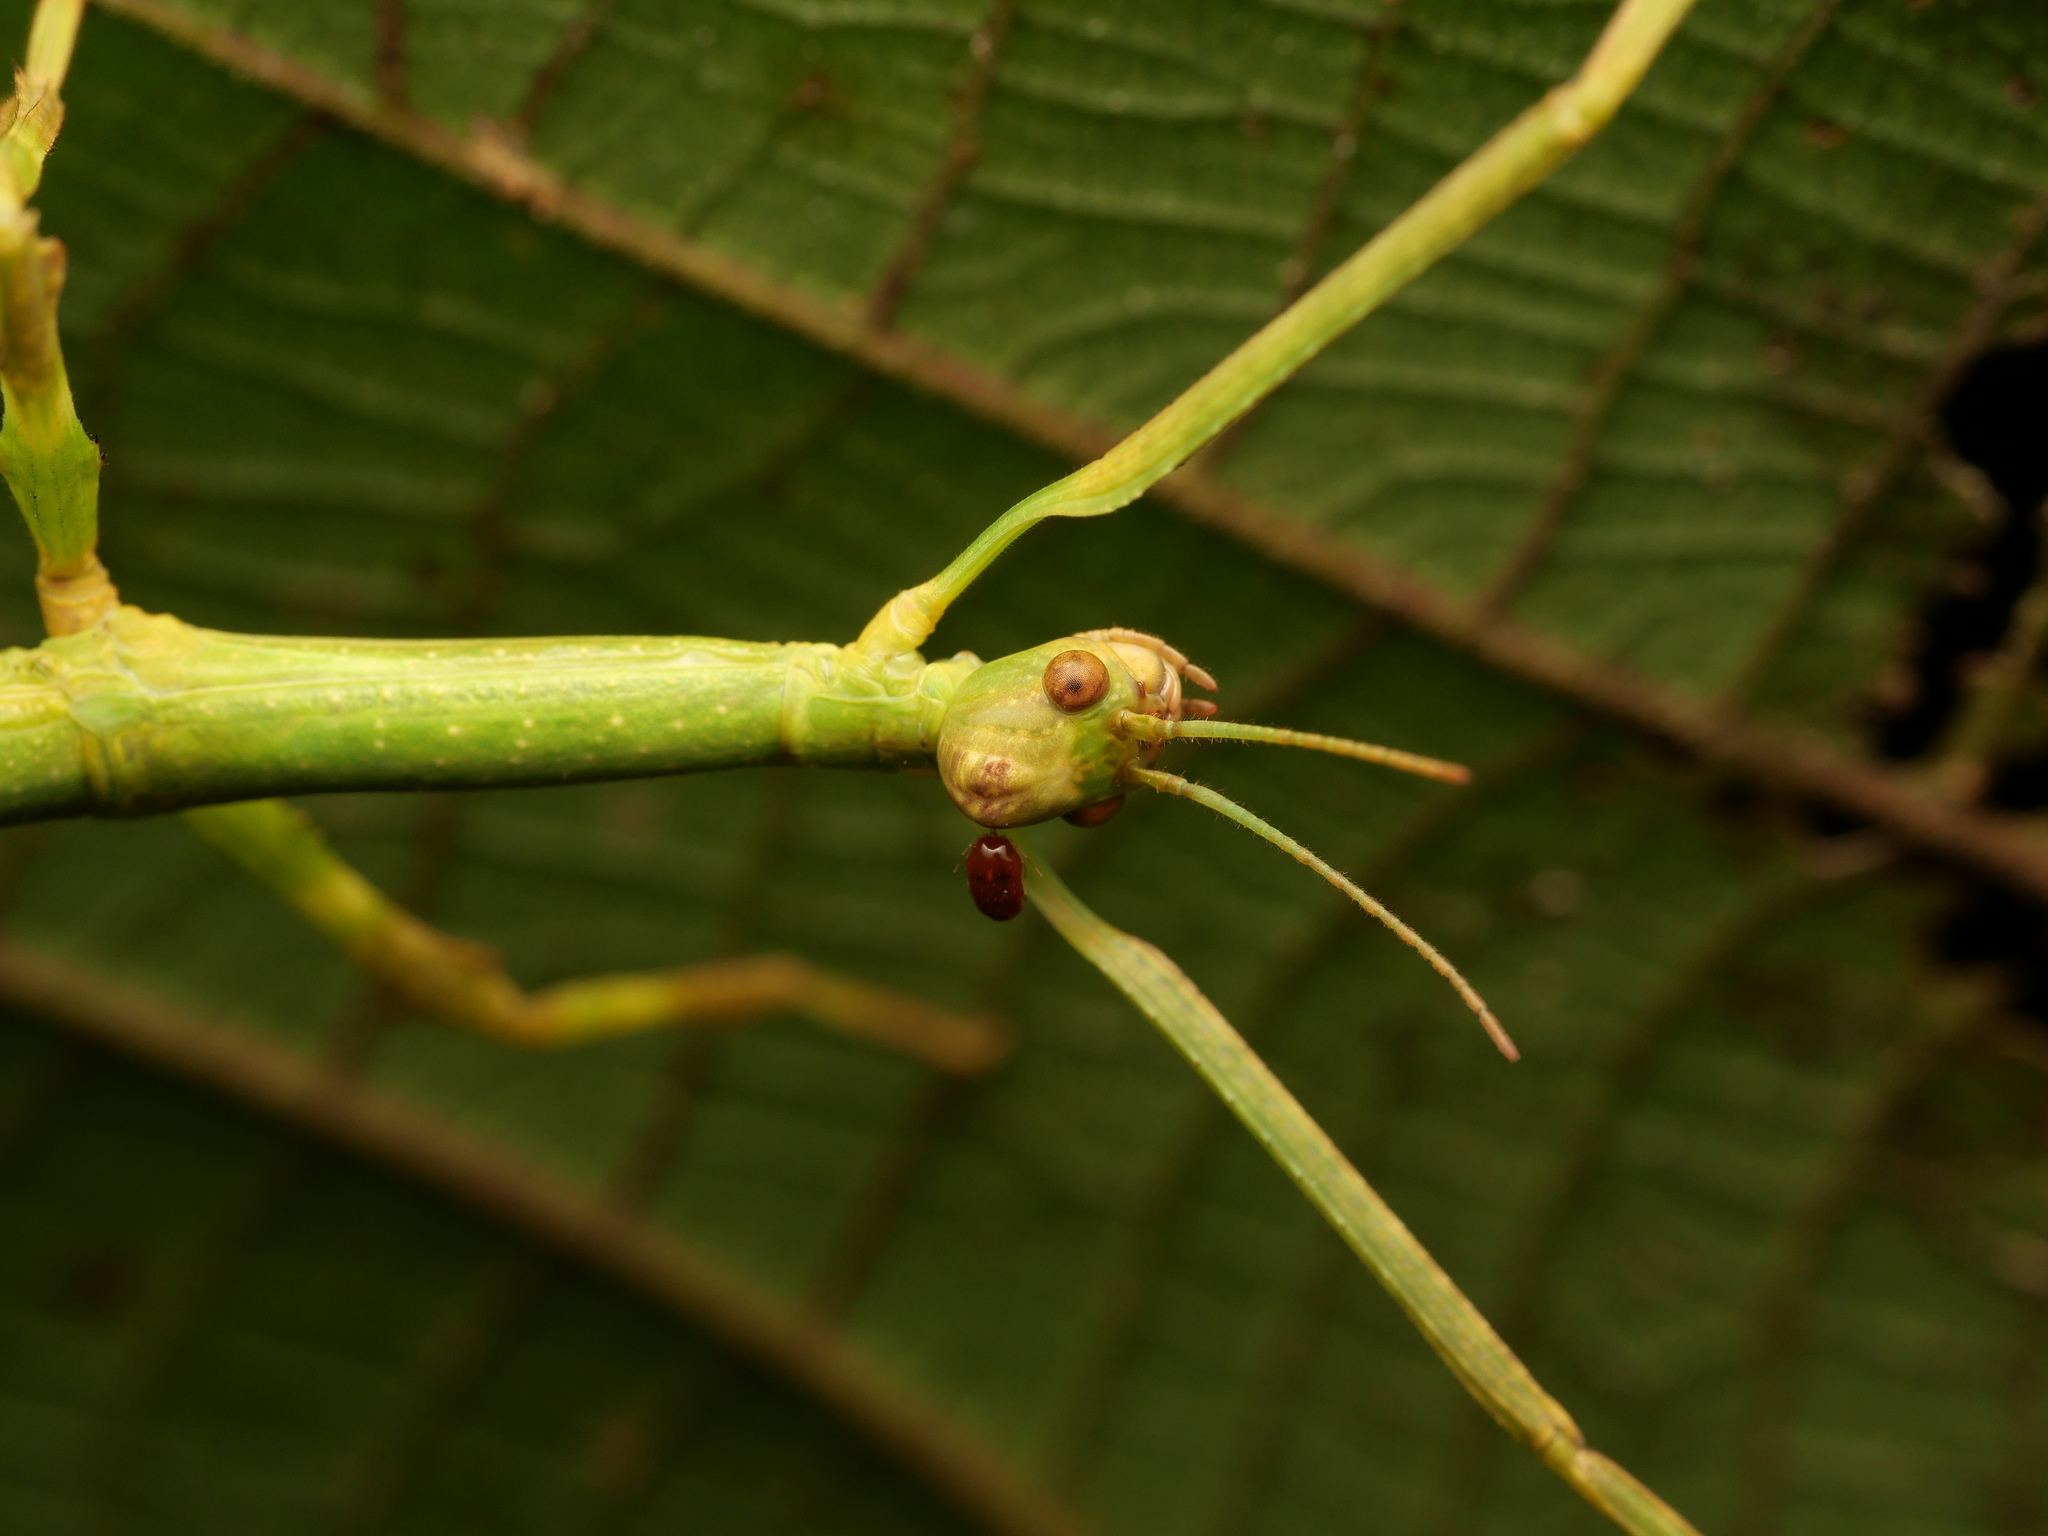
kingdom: Animalia
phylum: Arthropoda
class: Insecta
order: Phasmida
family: Phasmatidae
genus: Peloriana
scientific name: Peloriana lobiceps
